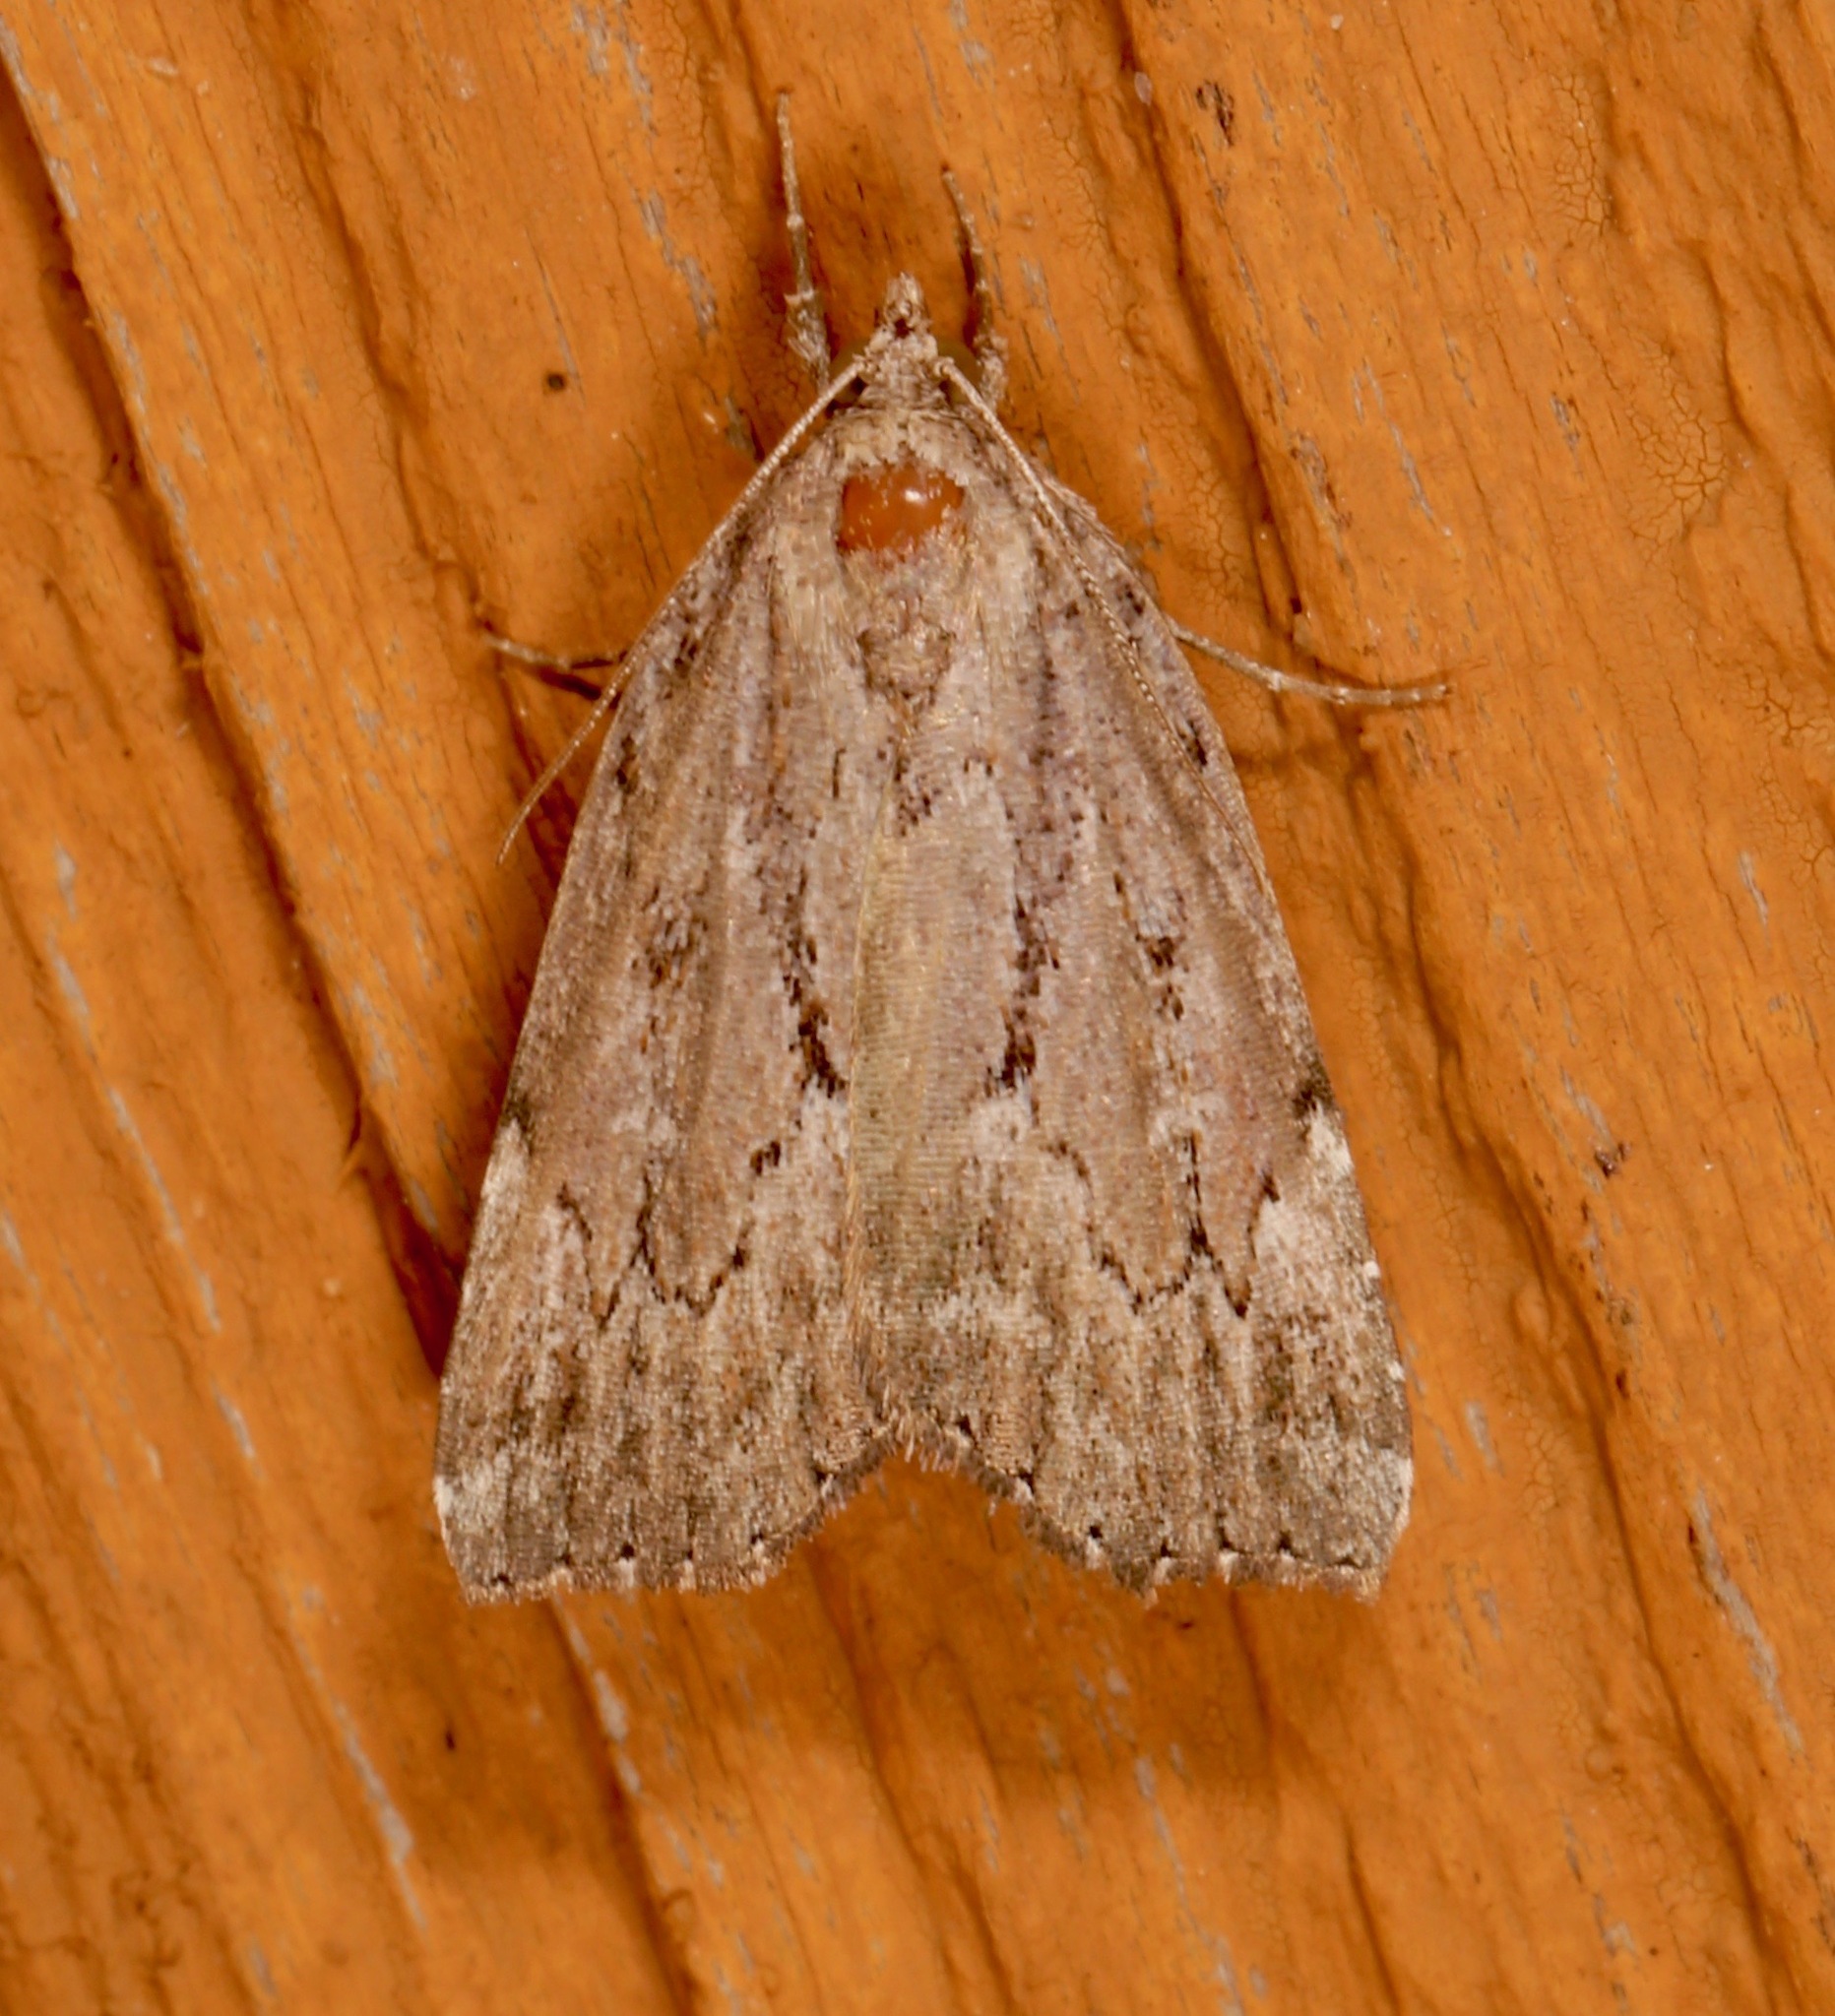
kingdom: Animalia
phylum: Arthropoda
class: Insecta
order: Lepidoptera
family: Erebidae
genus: Cutina
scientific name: Cutina albopunctella
